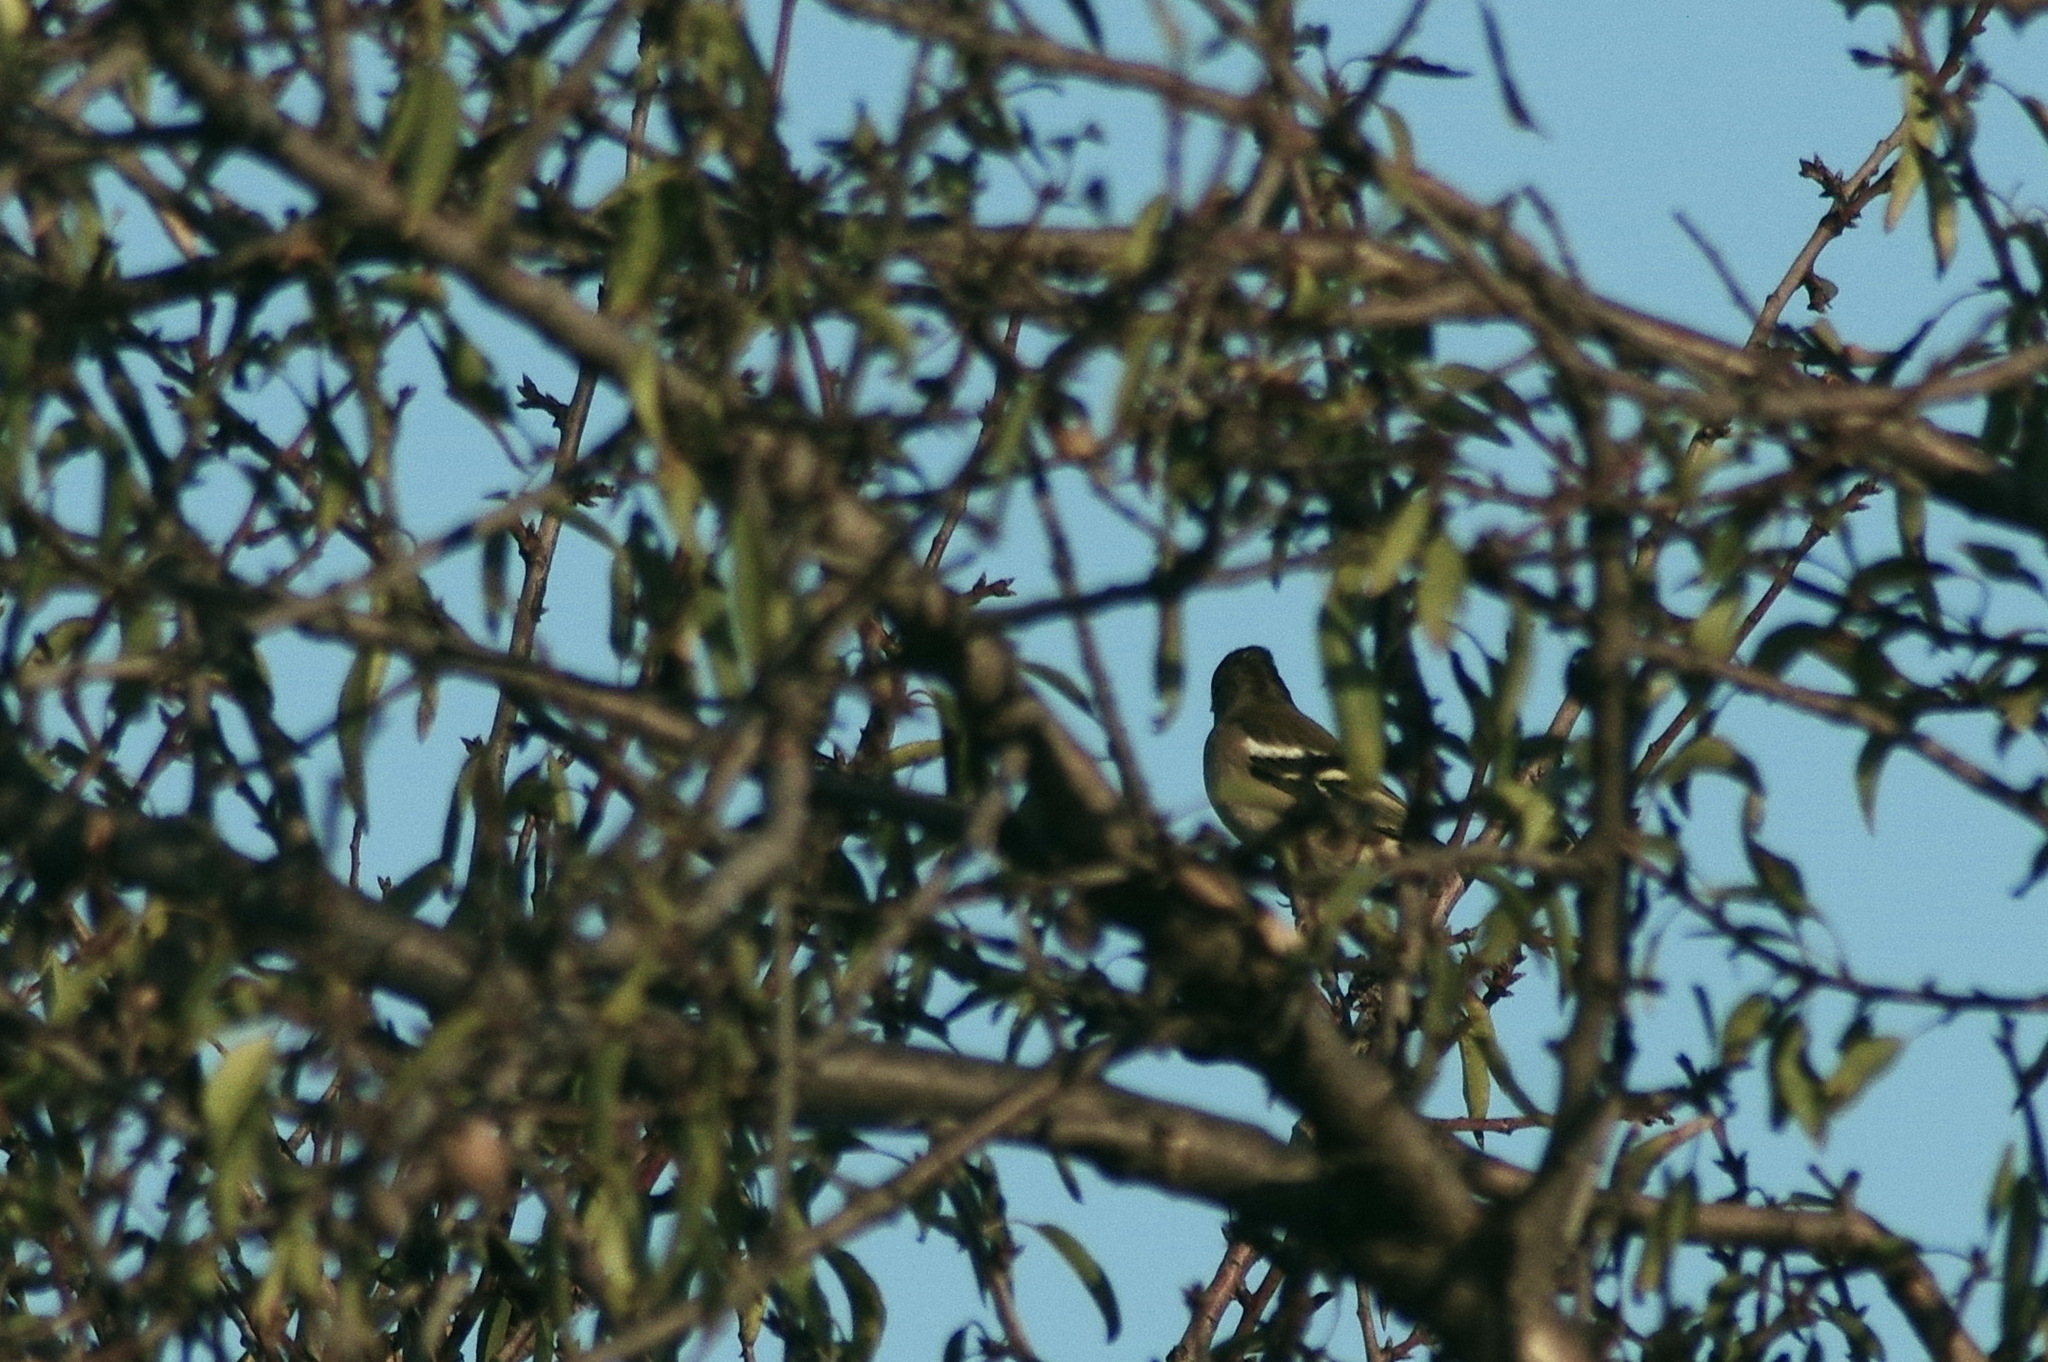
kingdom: Animalia
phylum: Chordata
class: Aves
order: Passeriformes
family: Fringillidae
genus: Fringilla
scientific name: Fringilla coelebs
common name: Common chaffinch
